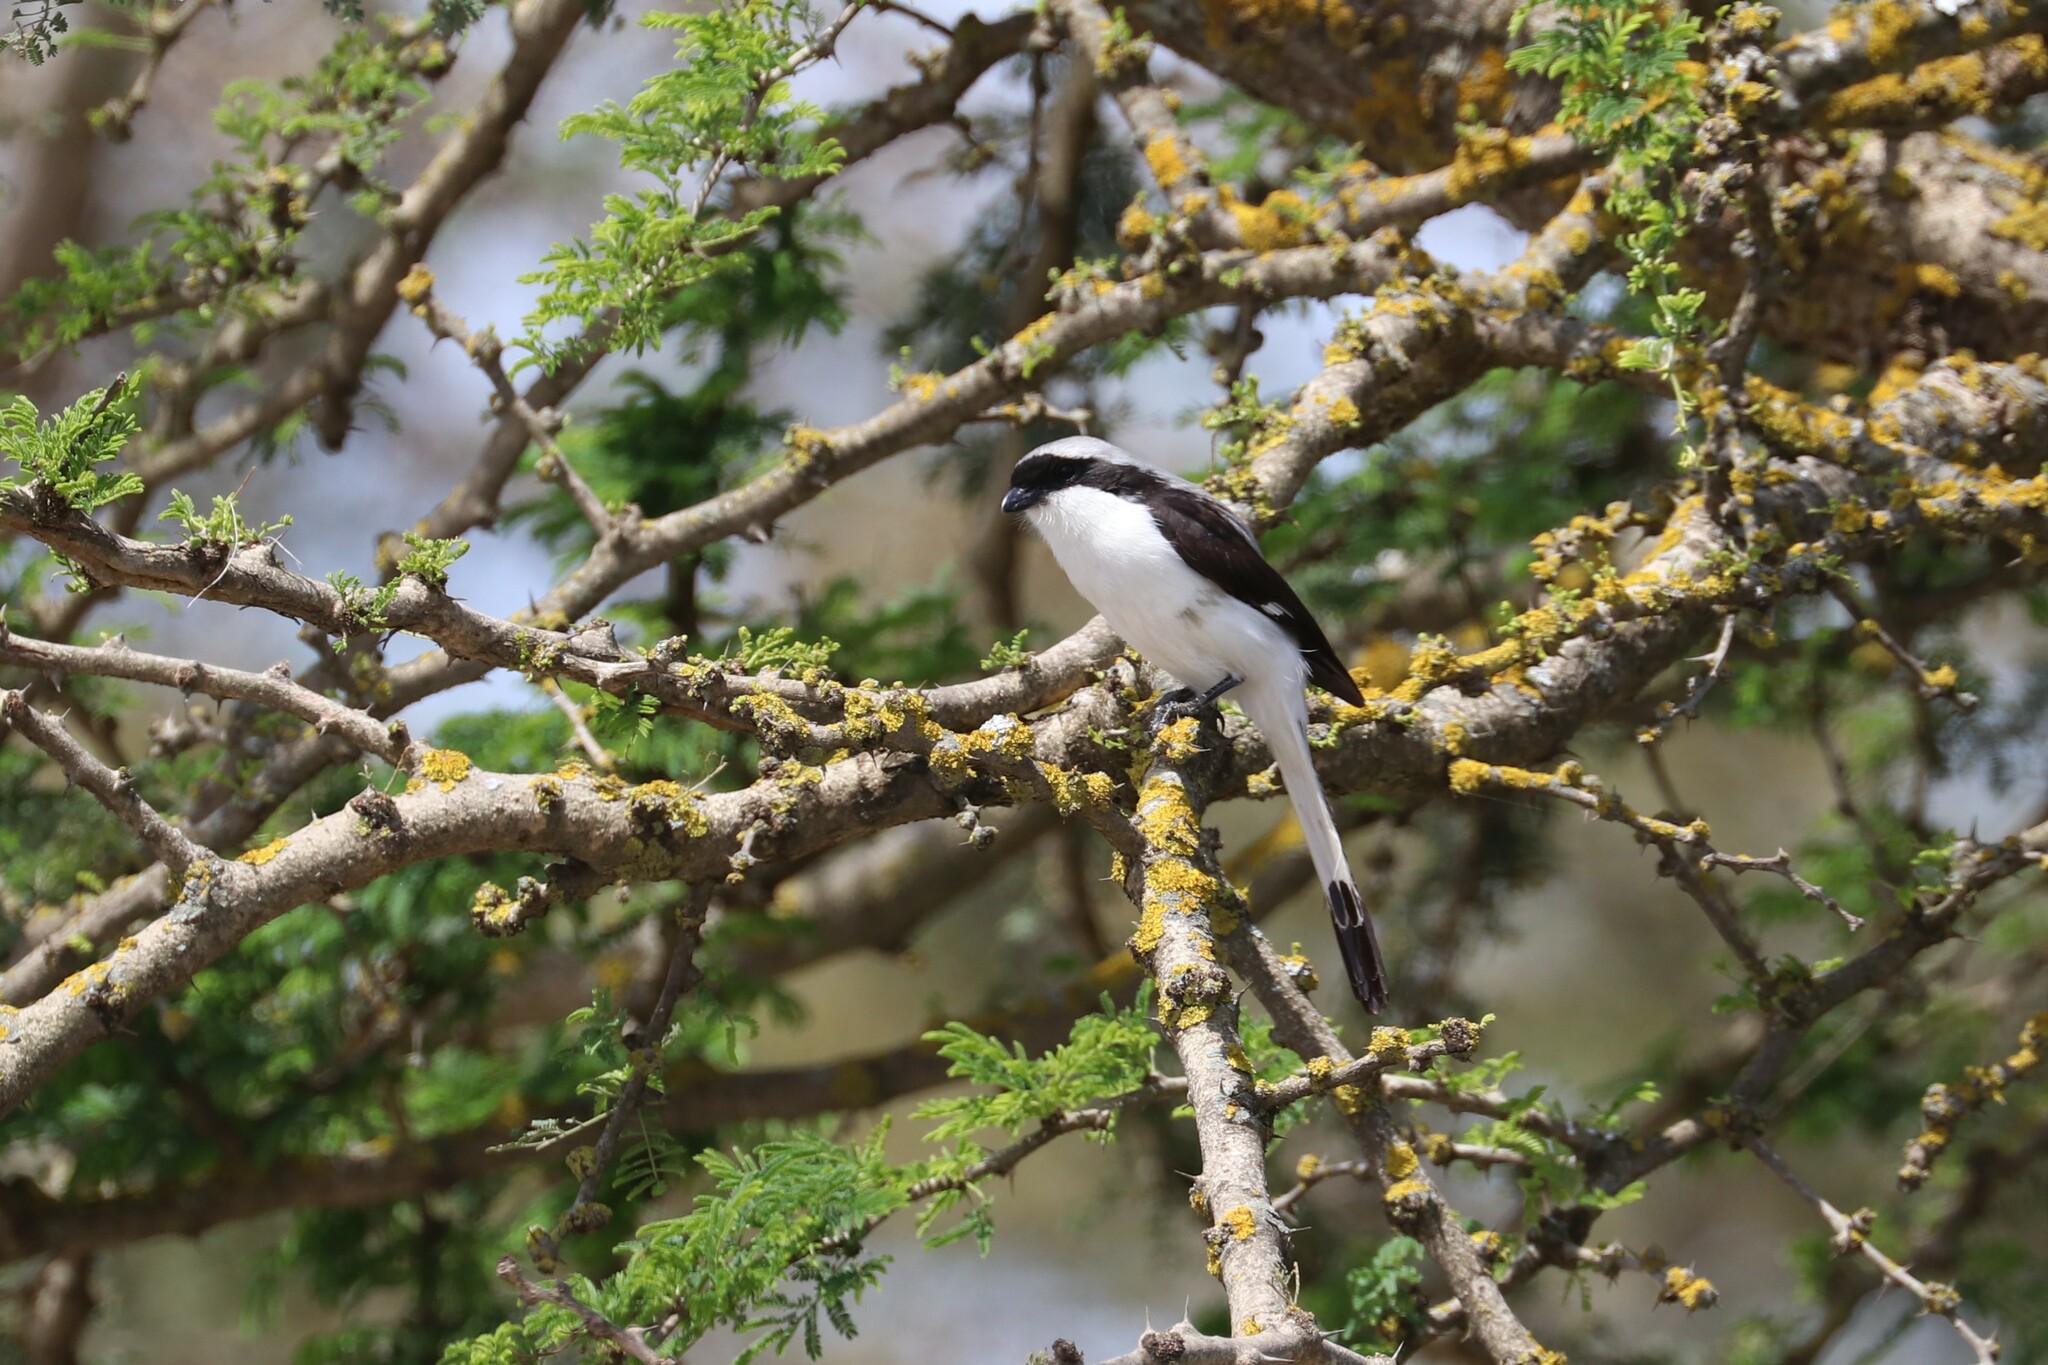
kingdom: Animalia
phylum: Chordata
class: Aves
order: Passeriformes
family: Laniidae
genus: Lanius
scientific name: Lanius excubitoroides
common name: Grey-backed fiscal
